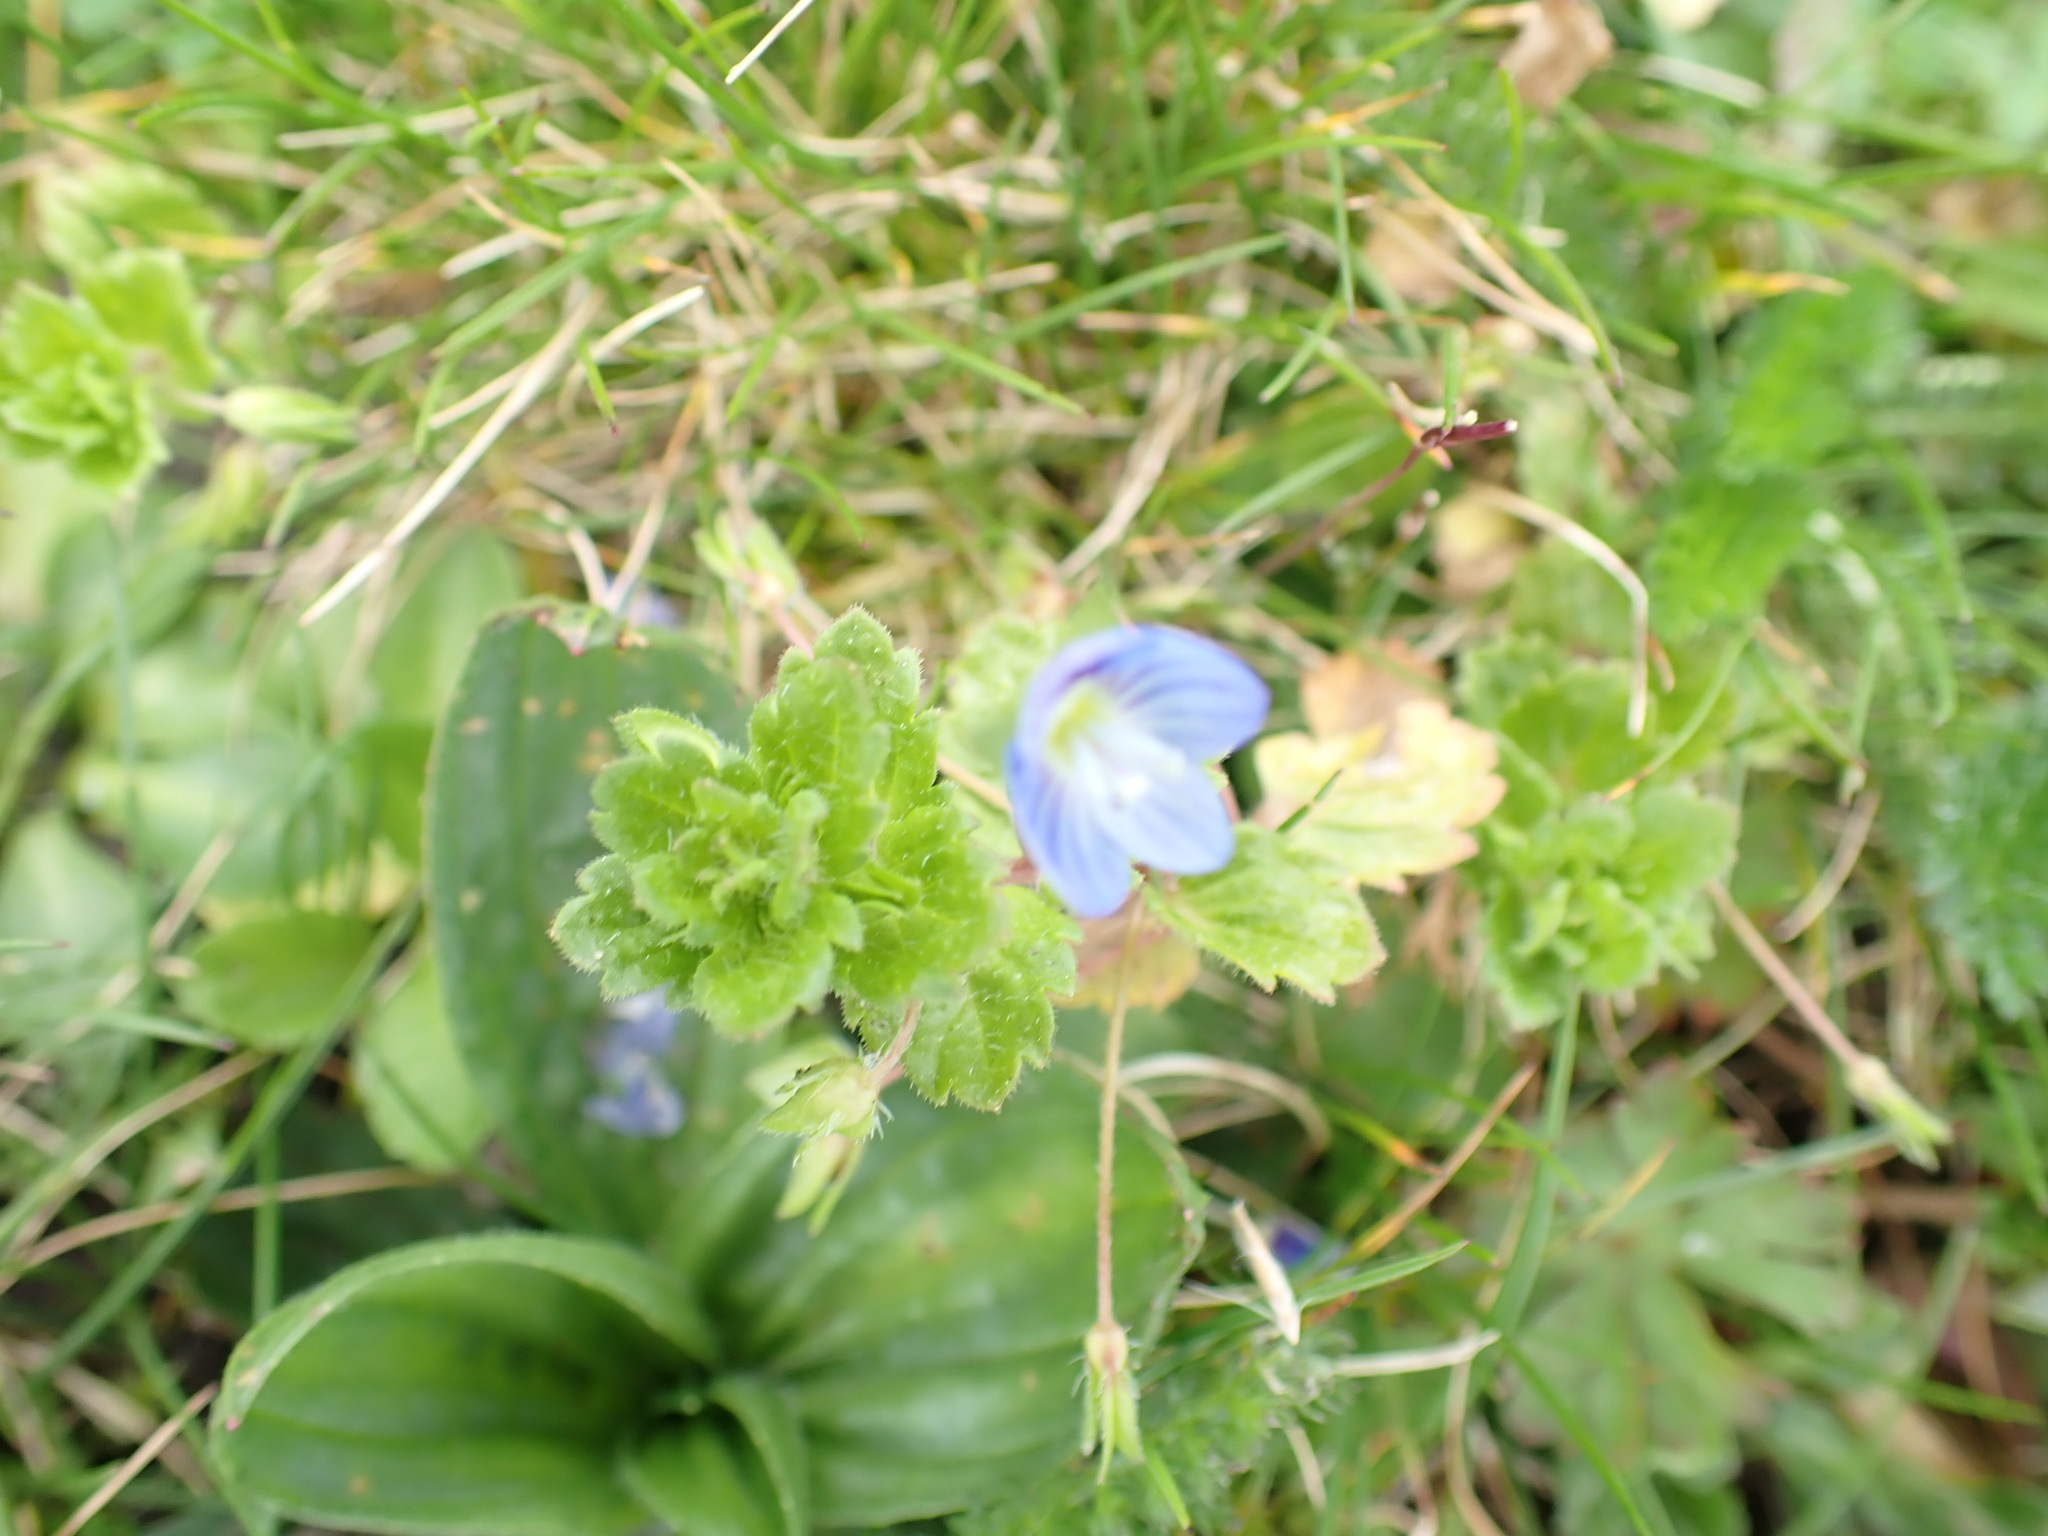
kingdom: Plantae
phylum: Tracheophyta
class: Magnoliopsida
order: Lamiales
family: Plantaginaceae
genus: Veronica
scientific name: Veronica persica
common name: Common field-speedwell
